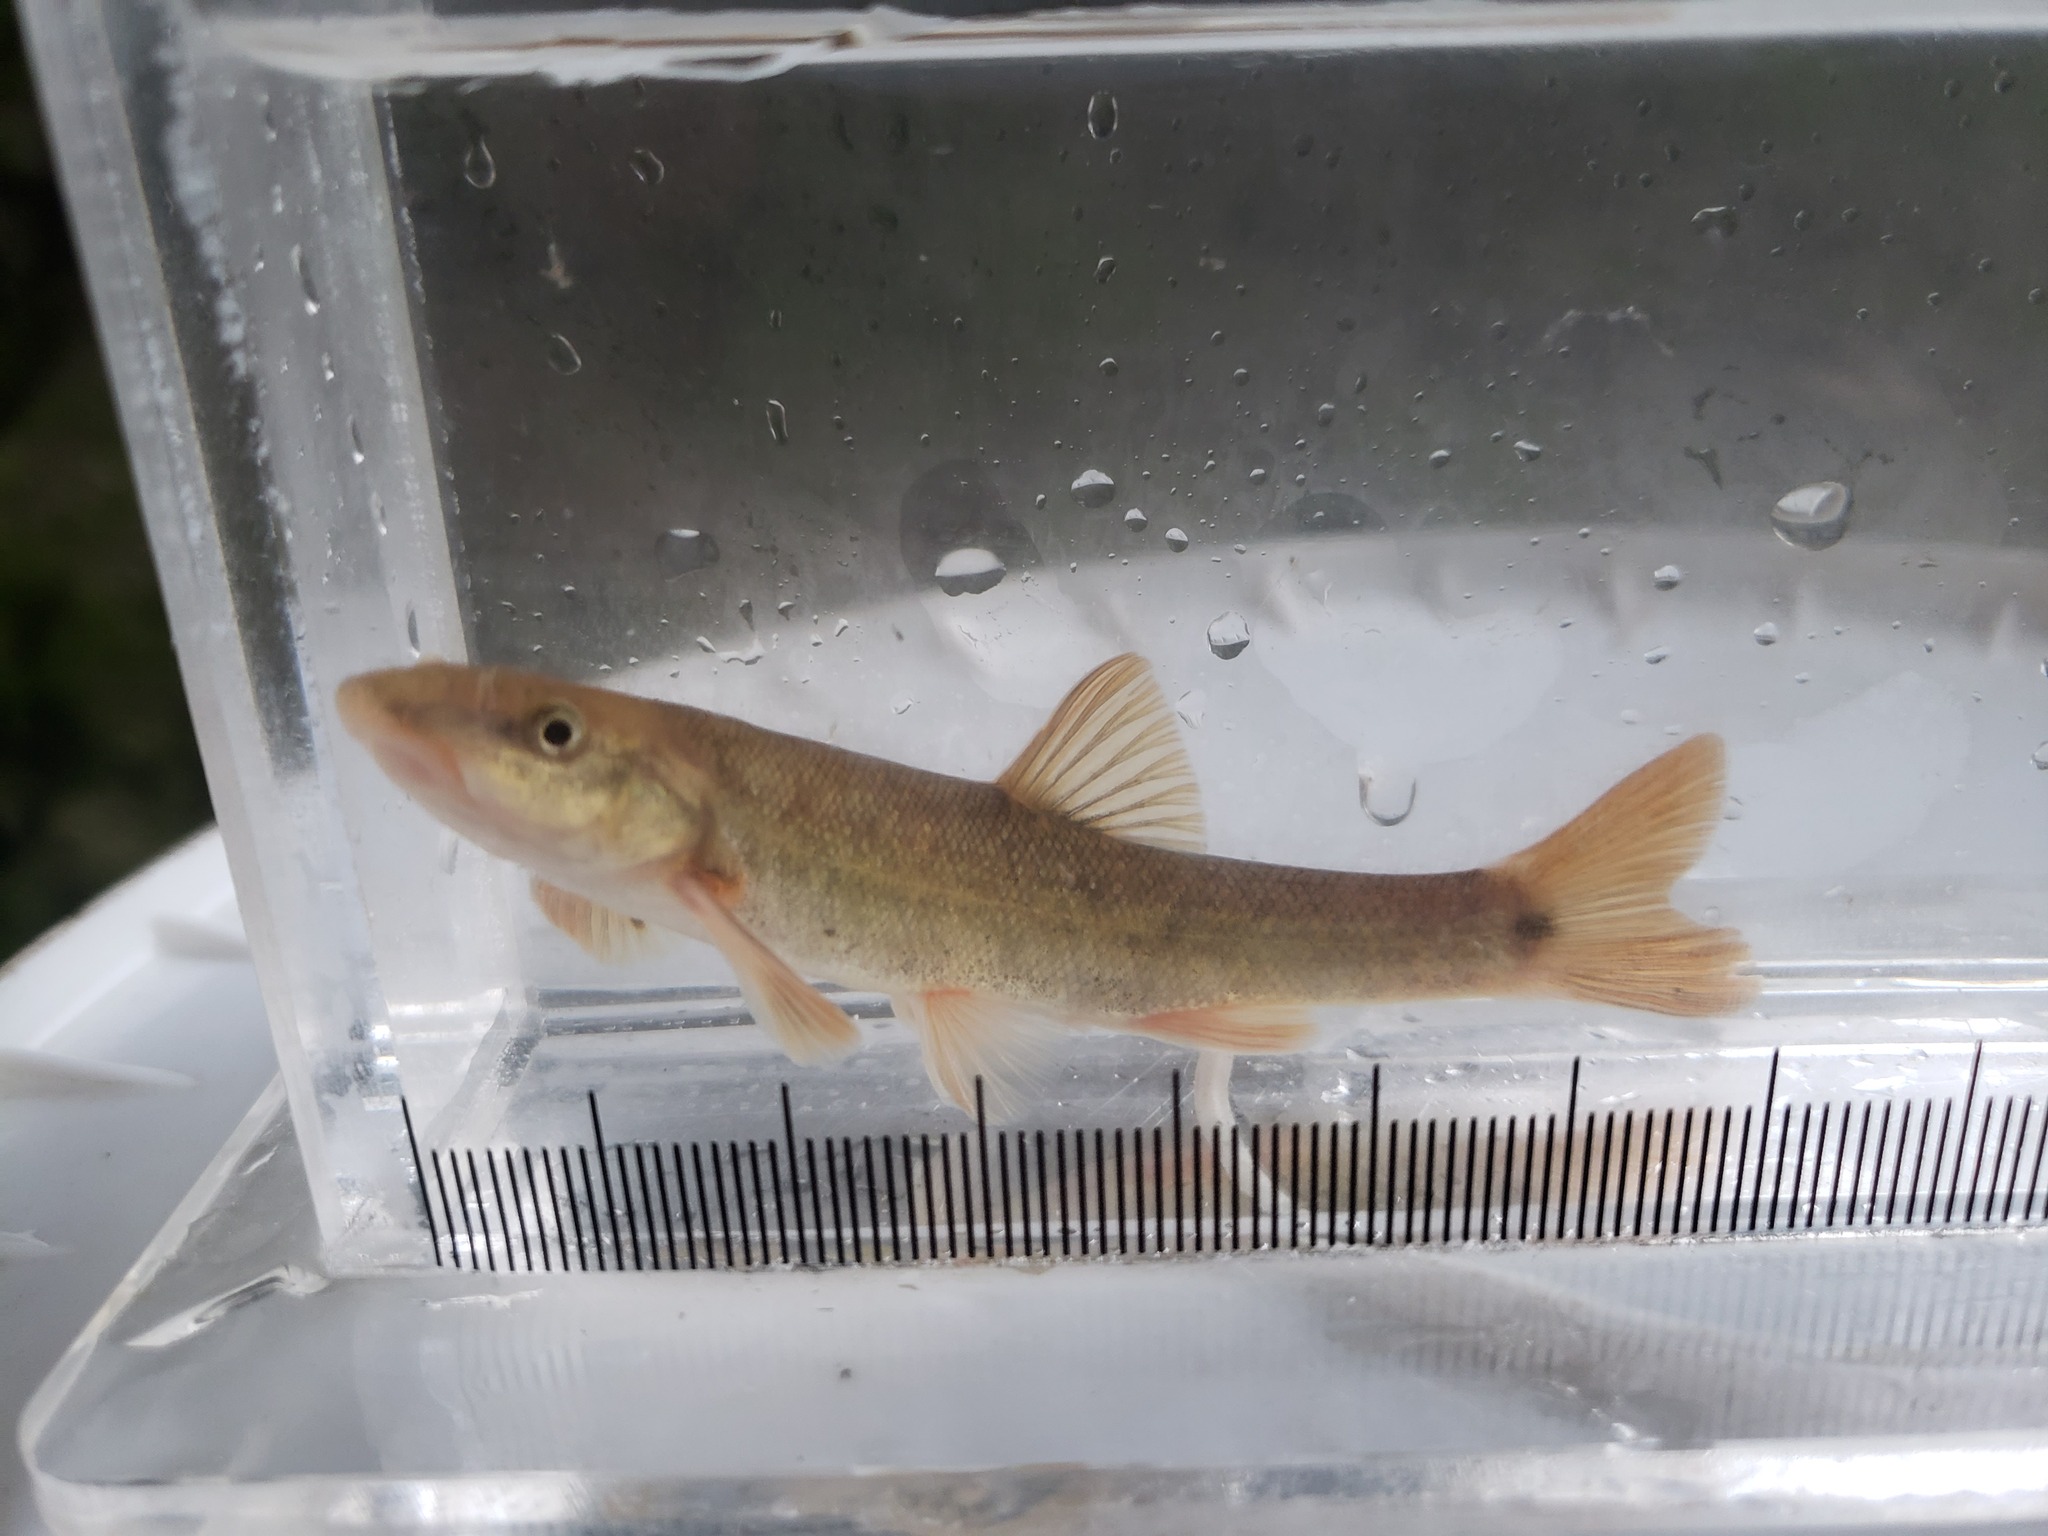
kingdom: Animalia
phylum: Chordata
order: Cypriniformes
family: Cyprinidae
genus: Rhinichthys
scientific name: Rhinichthys cataractae
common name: Longnose dace
